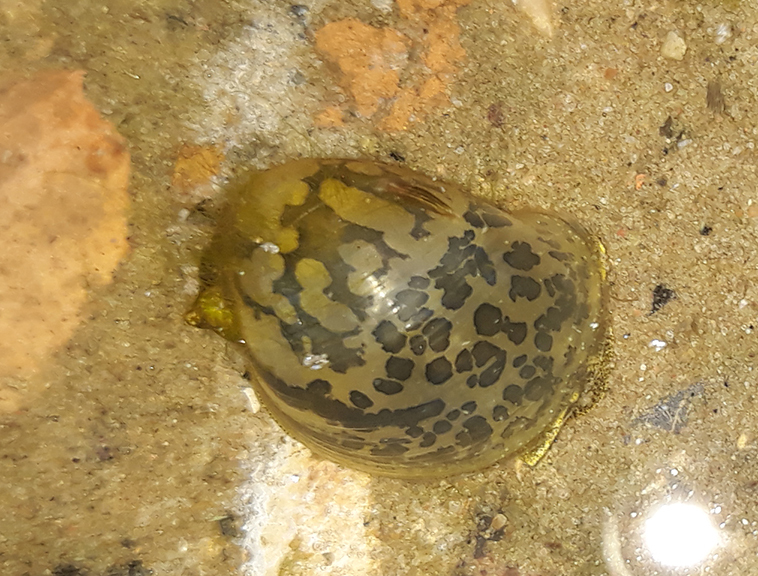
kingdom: Animalia
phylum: Mollusca
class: Gastropoda
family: Lymnaeidae
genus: Radix
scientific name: Radix auricularia
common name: Ear pond snail
